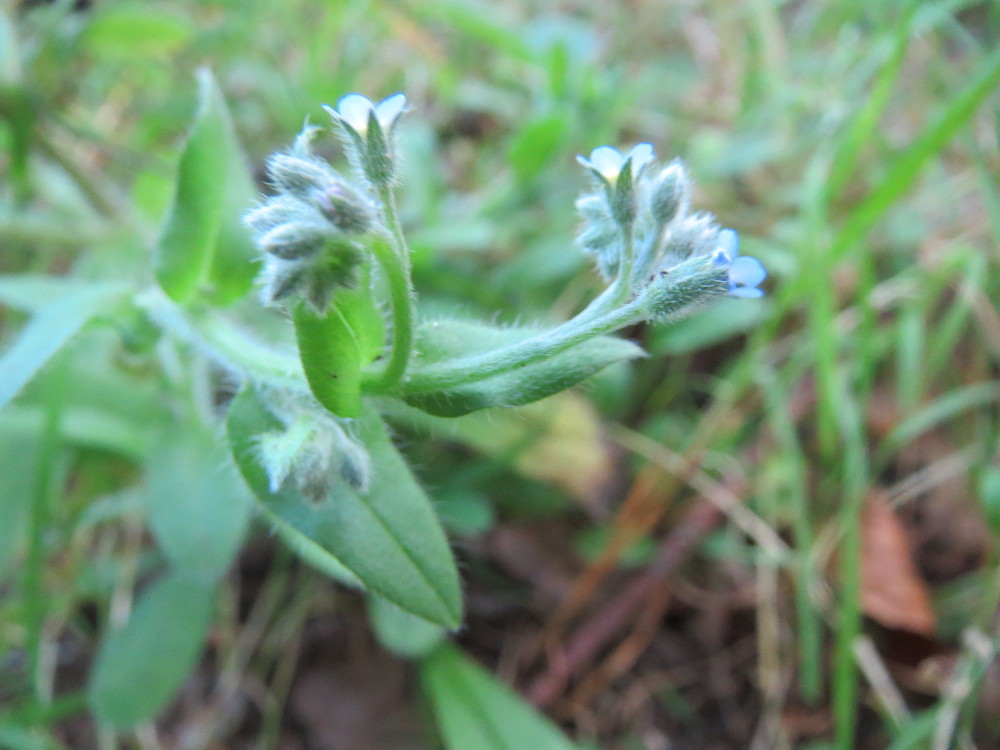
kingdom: Plantae
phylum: Tracheophyta
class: Magnoliopsida
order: Boraginales
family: Boraginaceae
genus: Myosotis
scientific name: Myosotis arvensis
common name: Field forget-me-not
